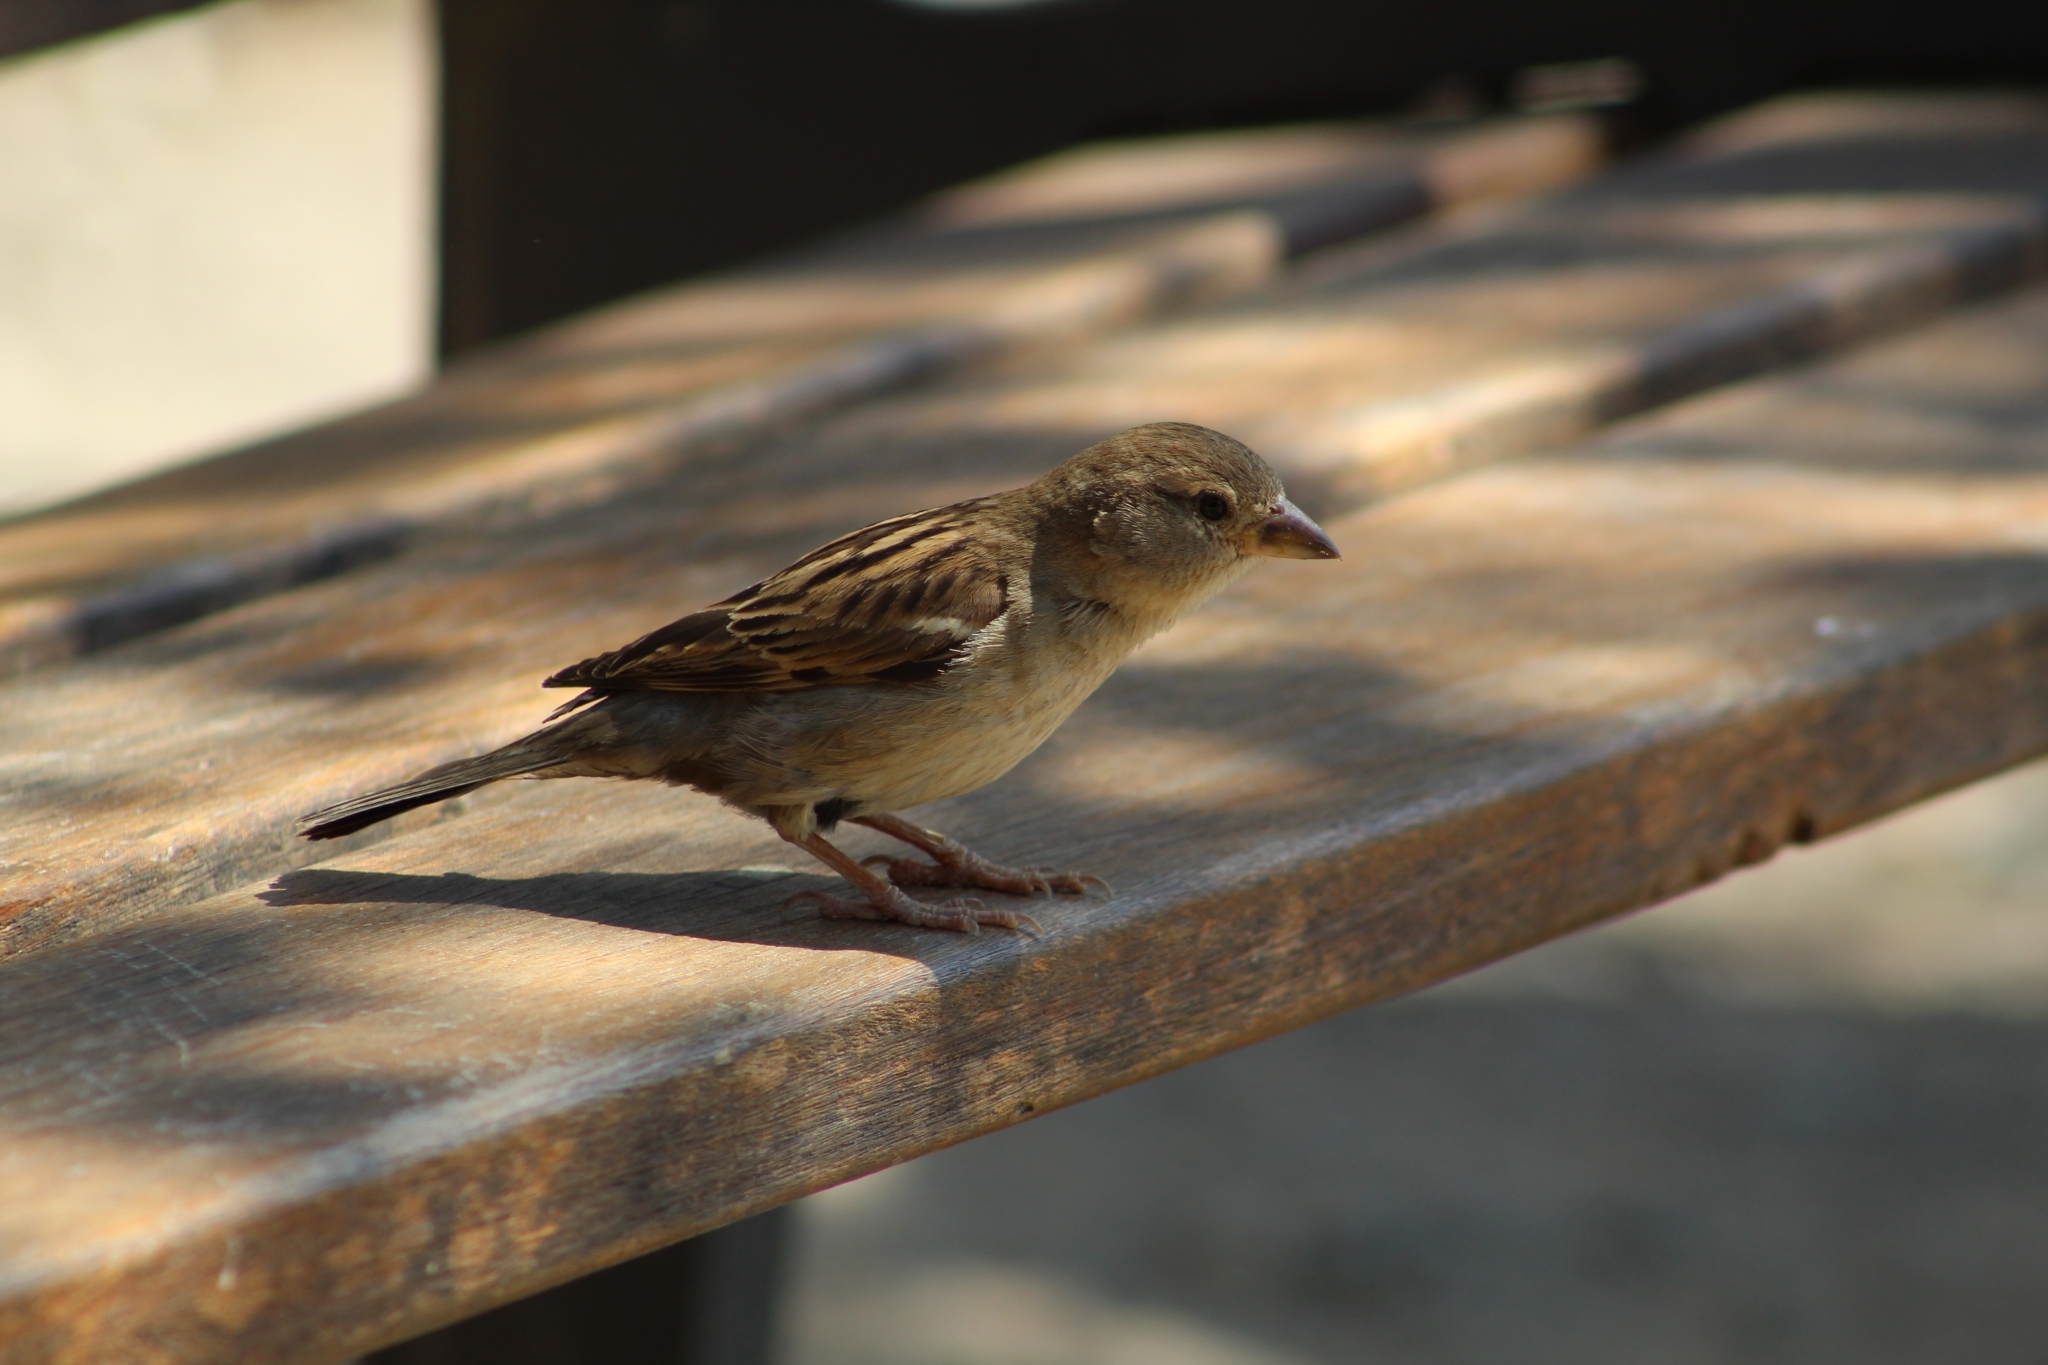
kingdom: Animalia
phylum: Chordata
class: Aves
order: Passeriformes
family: Passeridae
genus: Passer
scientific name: Passer domesticus
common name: House sparrow
